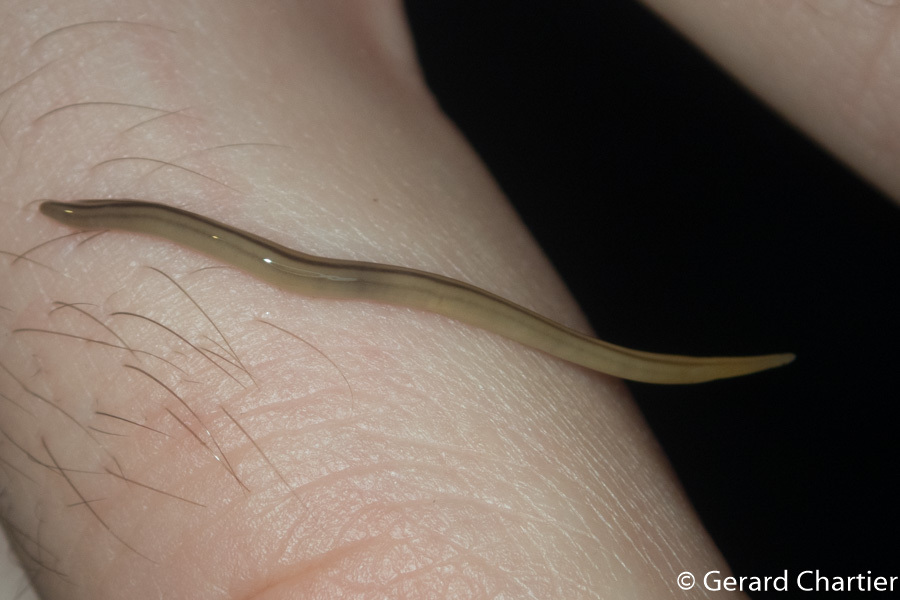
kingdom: Animalia
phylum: Platyhelminthes
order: Tricladida
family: Geoplanidae
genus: Rhynchodemus
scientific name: Rhynchodemus ochroleucus
